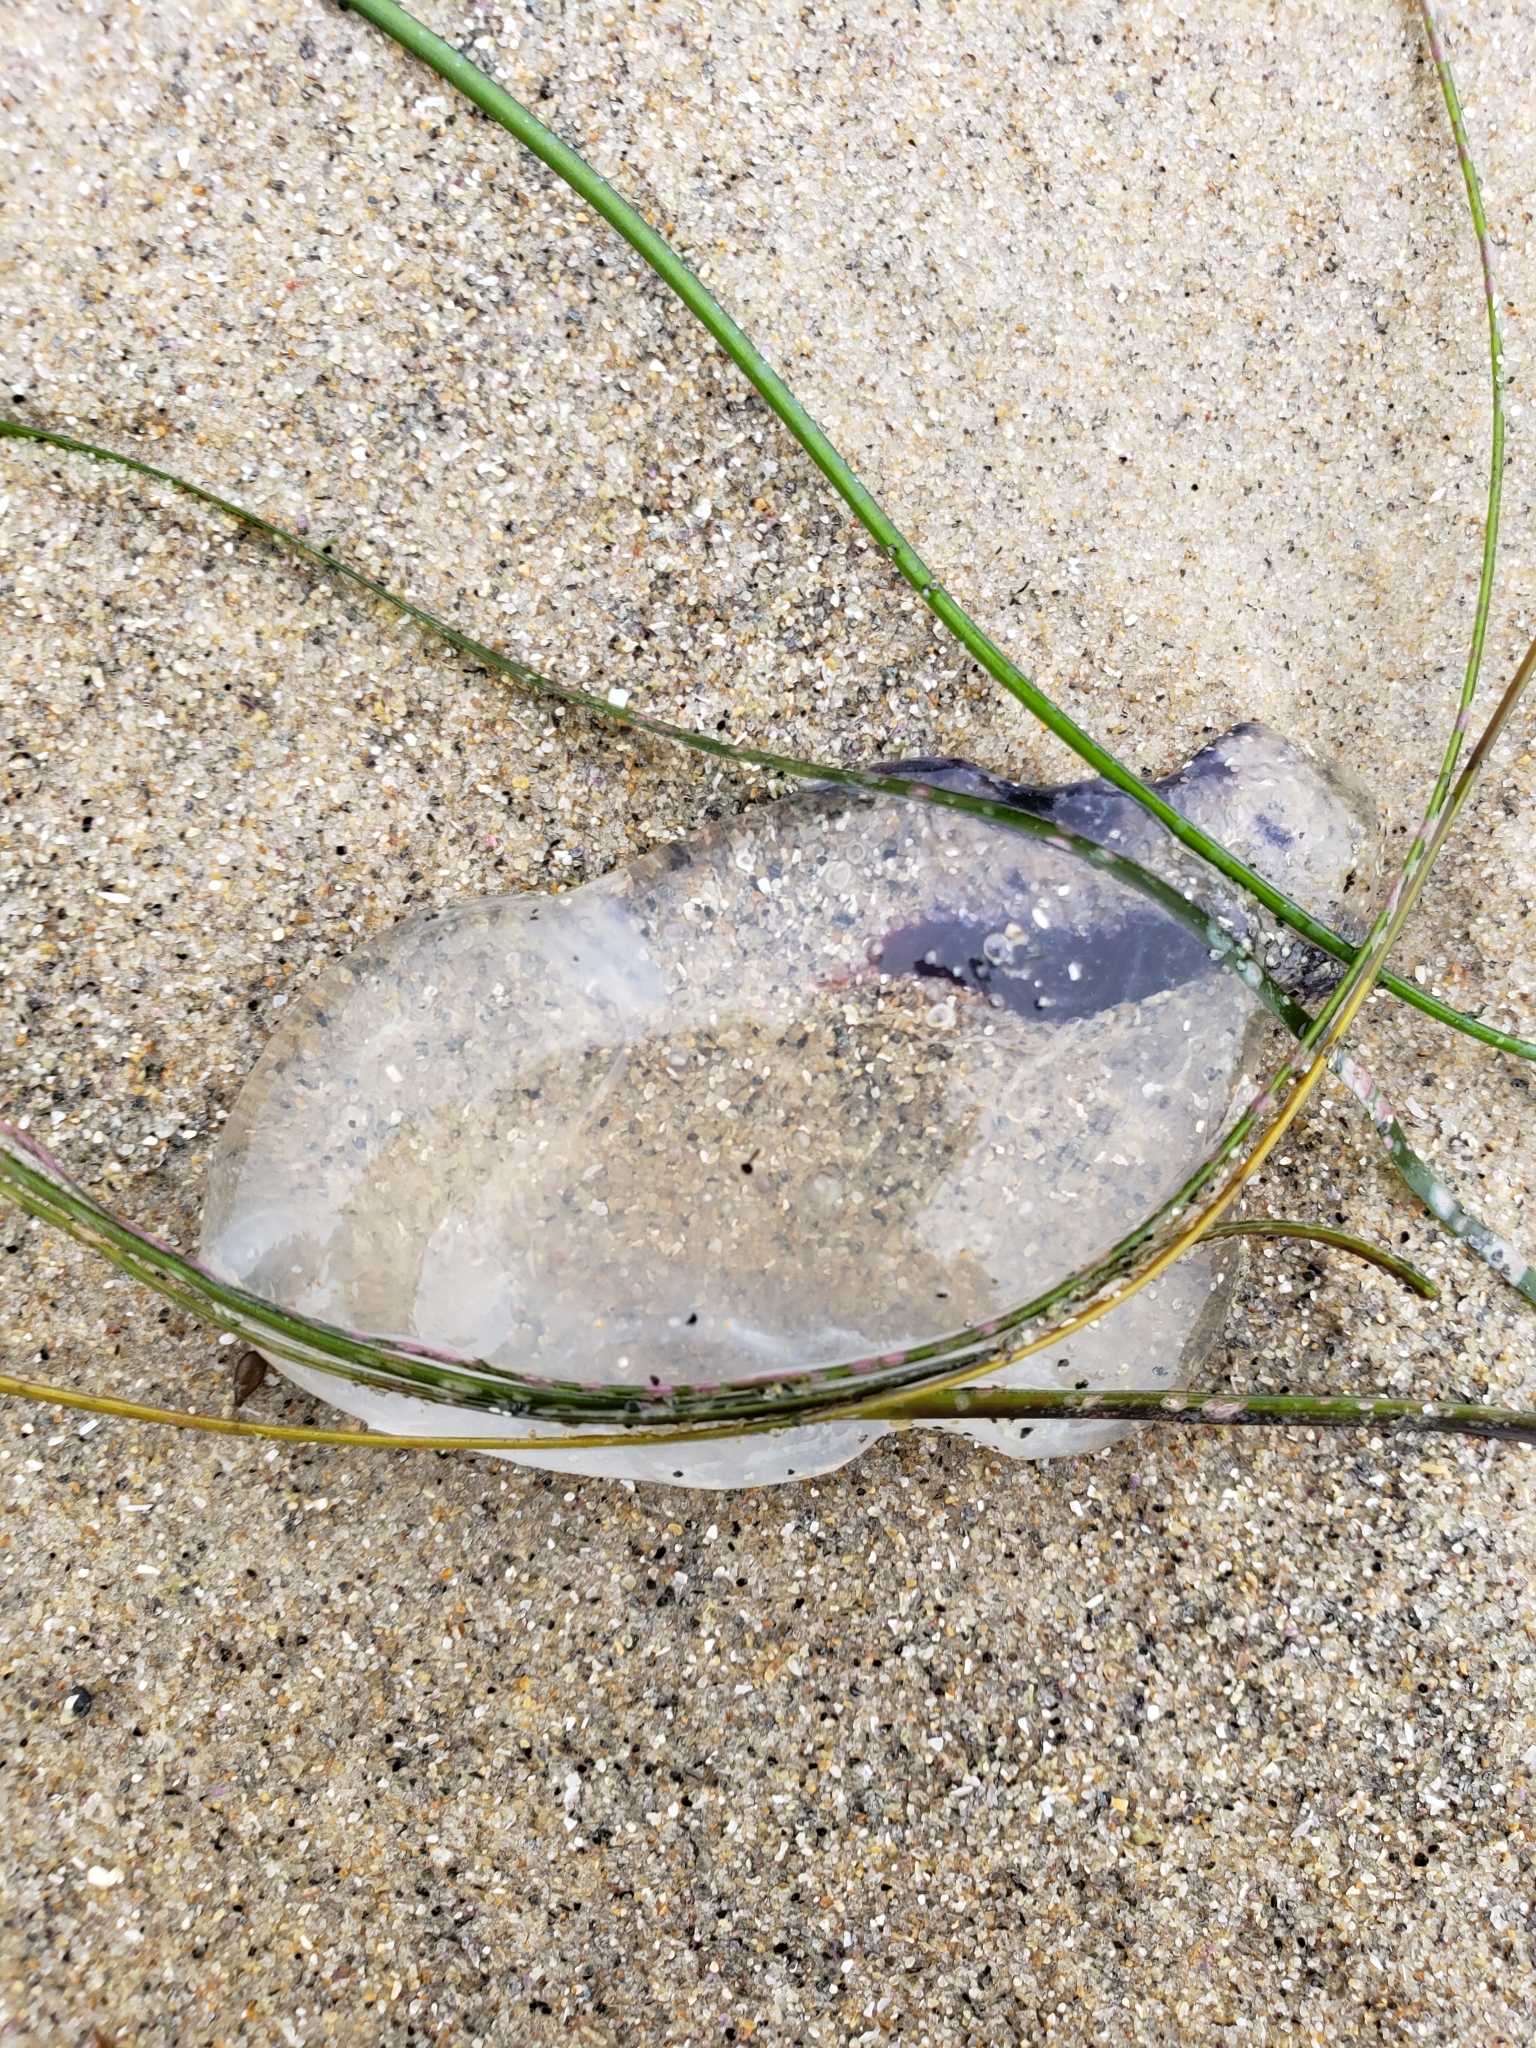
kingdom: Animalia
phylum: Cnidaria
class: Scyphozoa
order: Semaeostomeae
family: Pelagiidae
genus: Chrysaora
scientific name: Chrysaora colorata
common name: Purple-striped jellyfish
